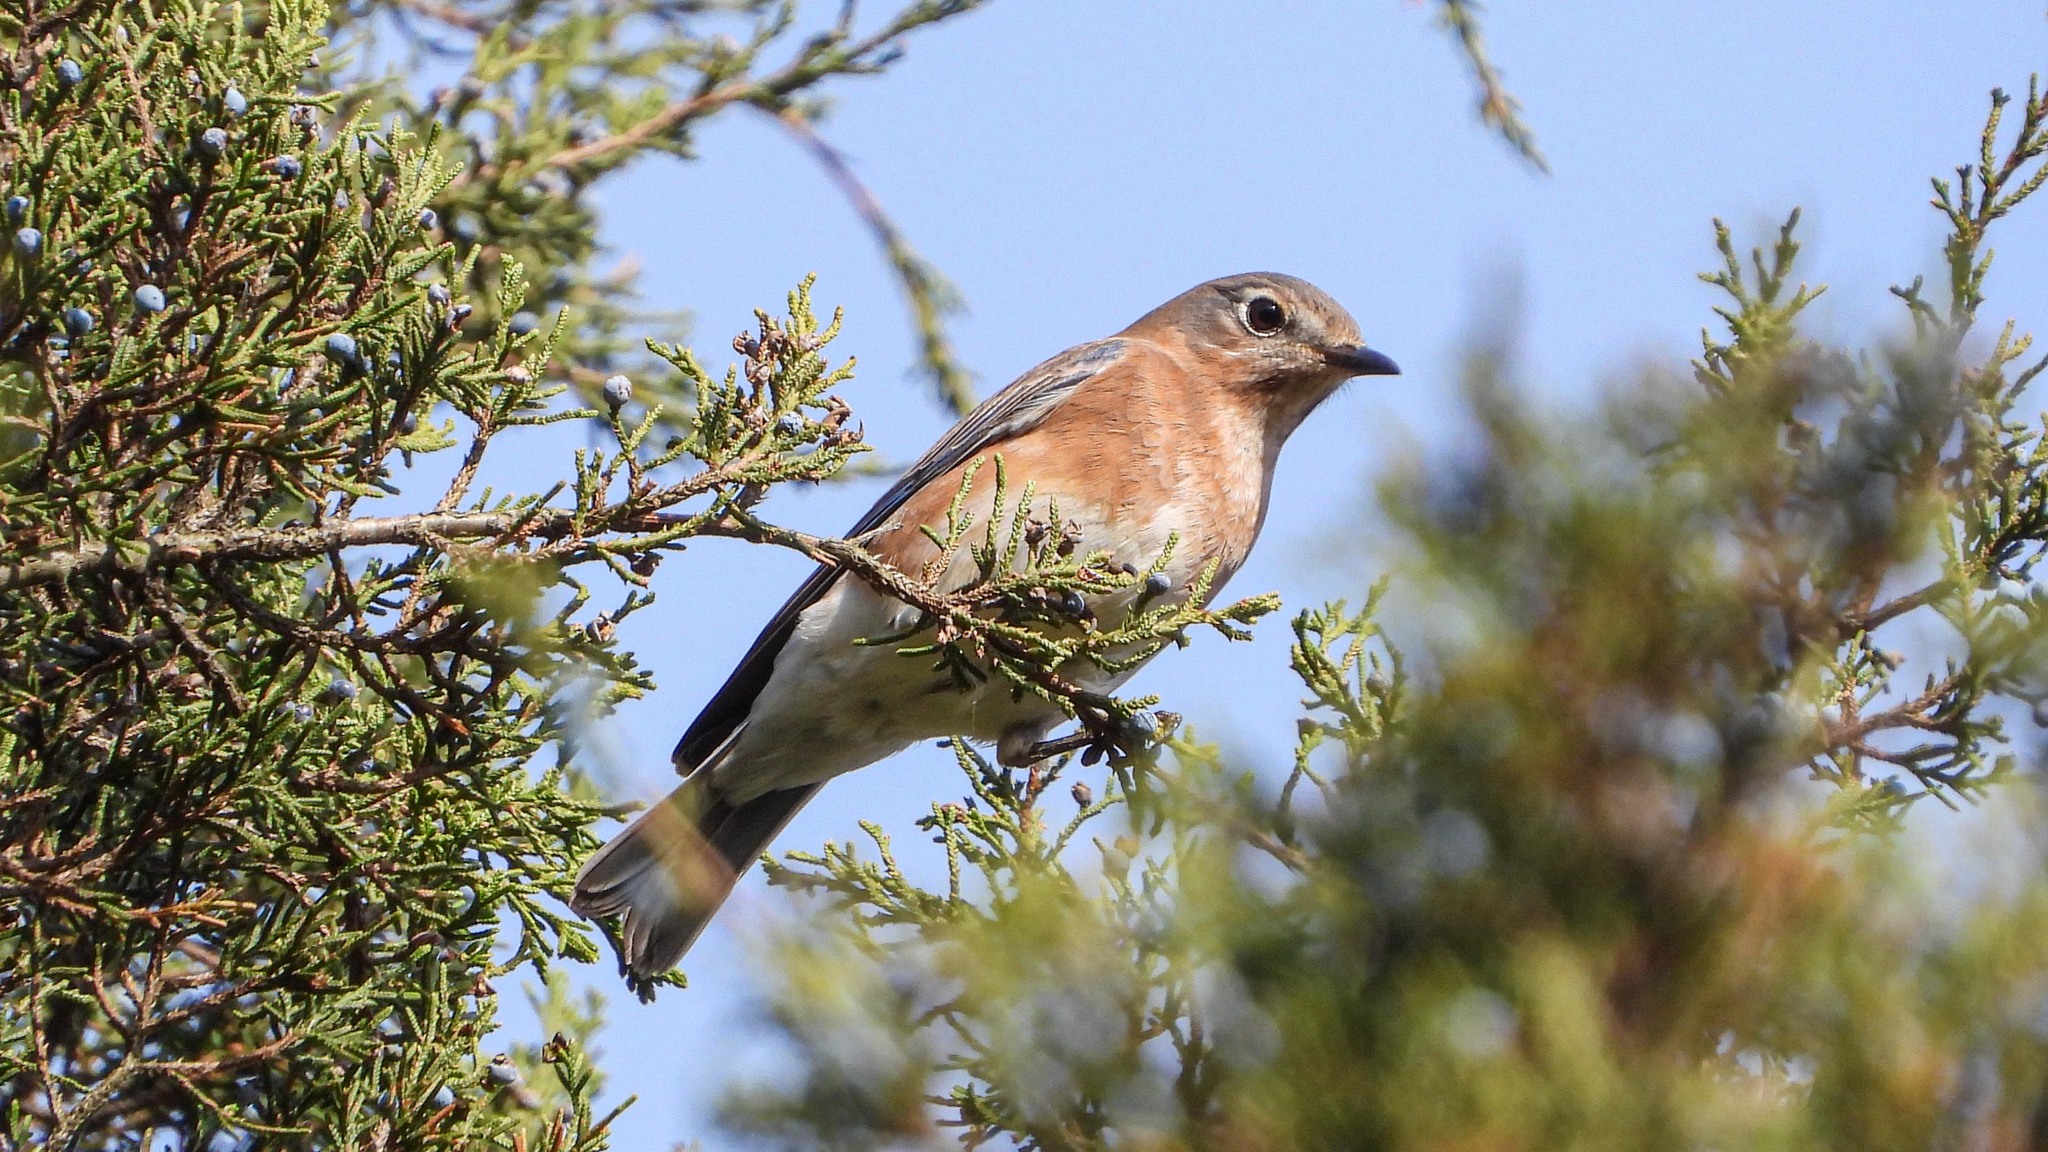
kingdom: Animalia
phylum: Chordata
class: Aves
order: Passeriformes
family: Turdidae
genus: Sialia
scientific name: Sialia sialis
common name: Eastern bluebird
